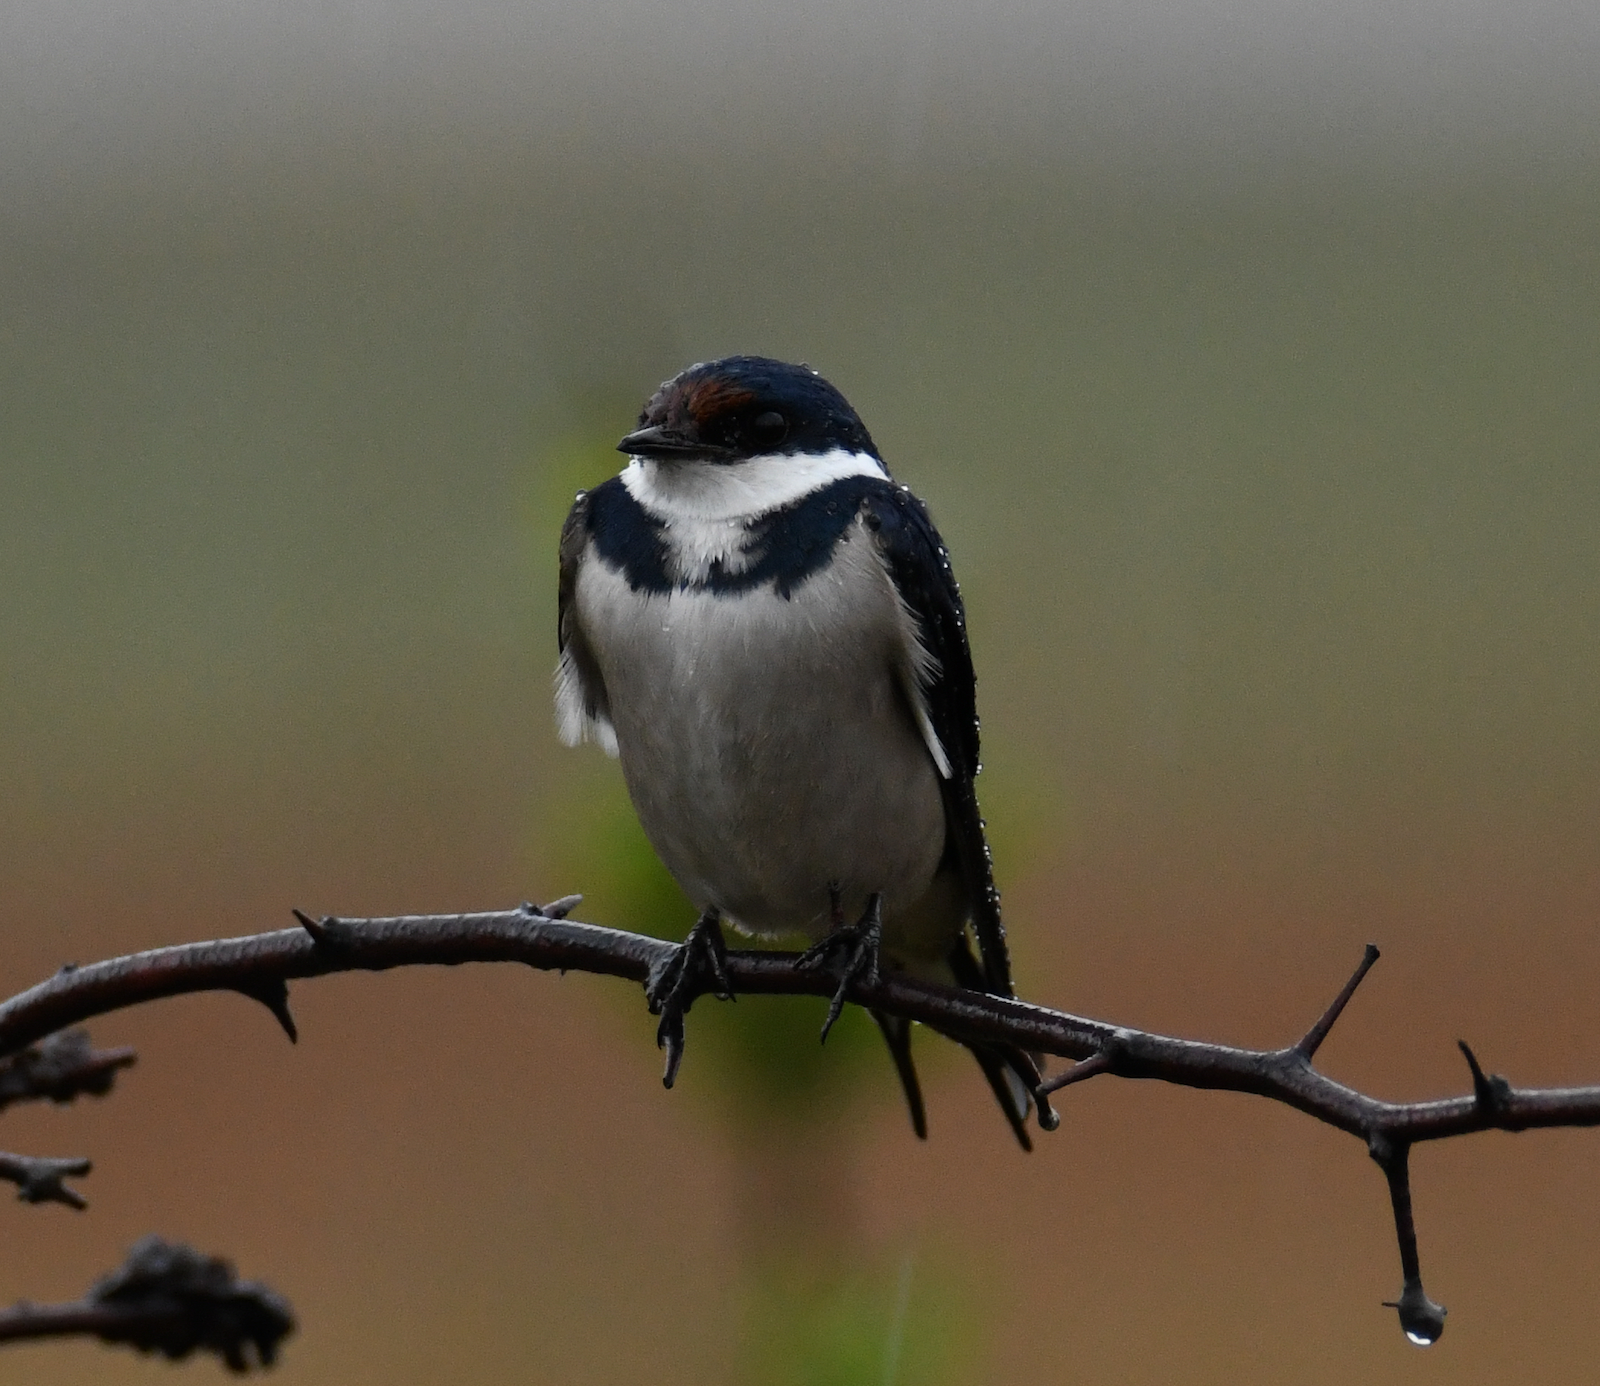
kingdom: Animalia
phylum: Chordata
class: Aves
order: Passeriformes
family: Hirundinidae
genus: Hirundo
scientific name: Hirundo albigularis
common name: White-throated swallow
